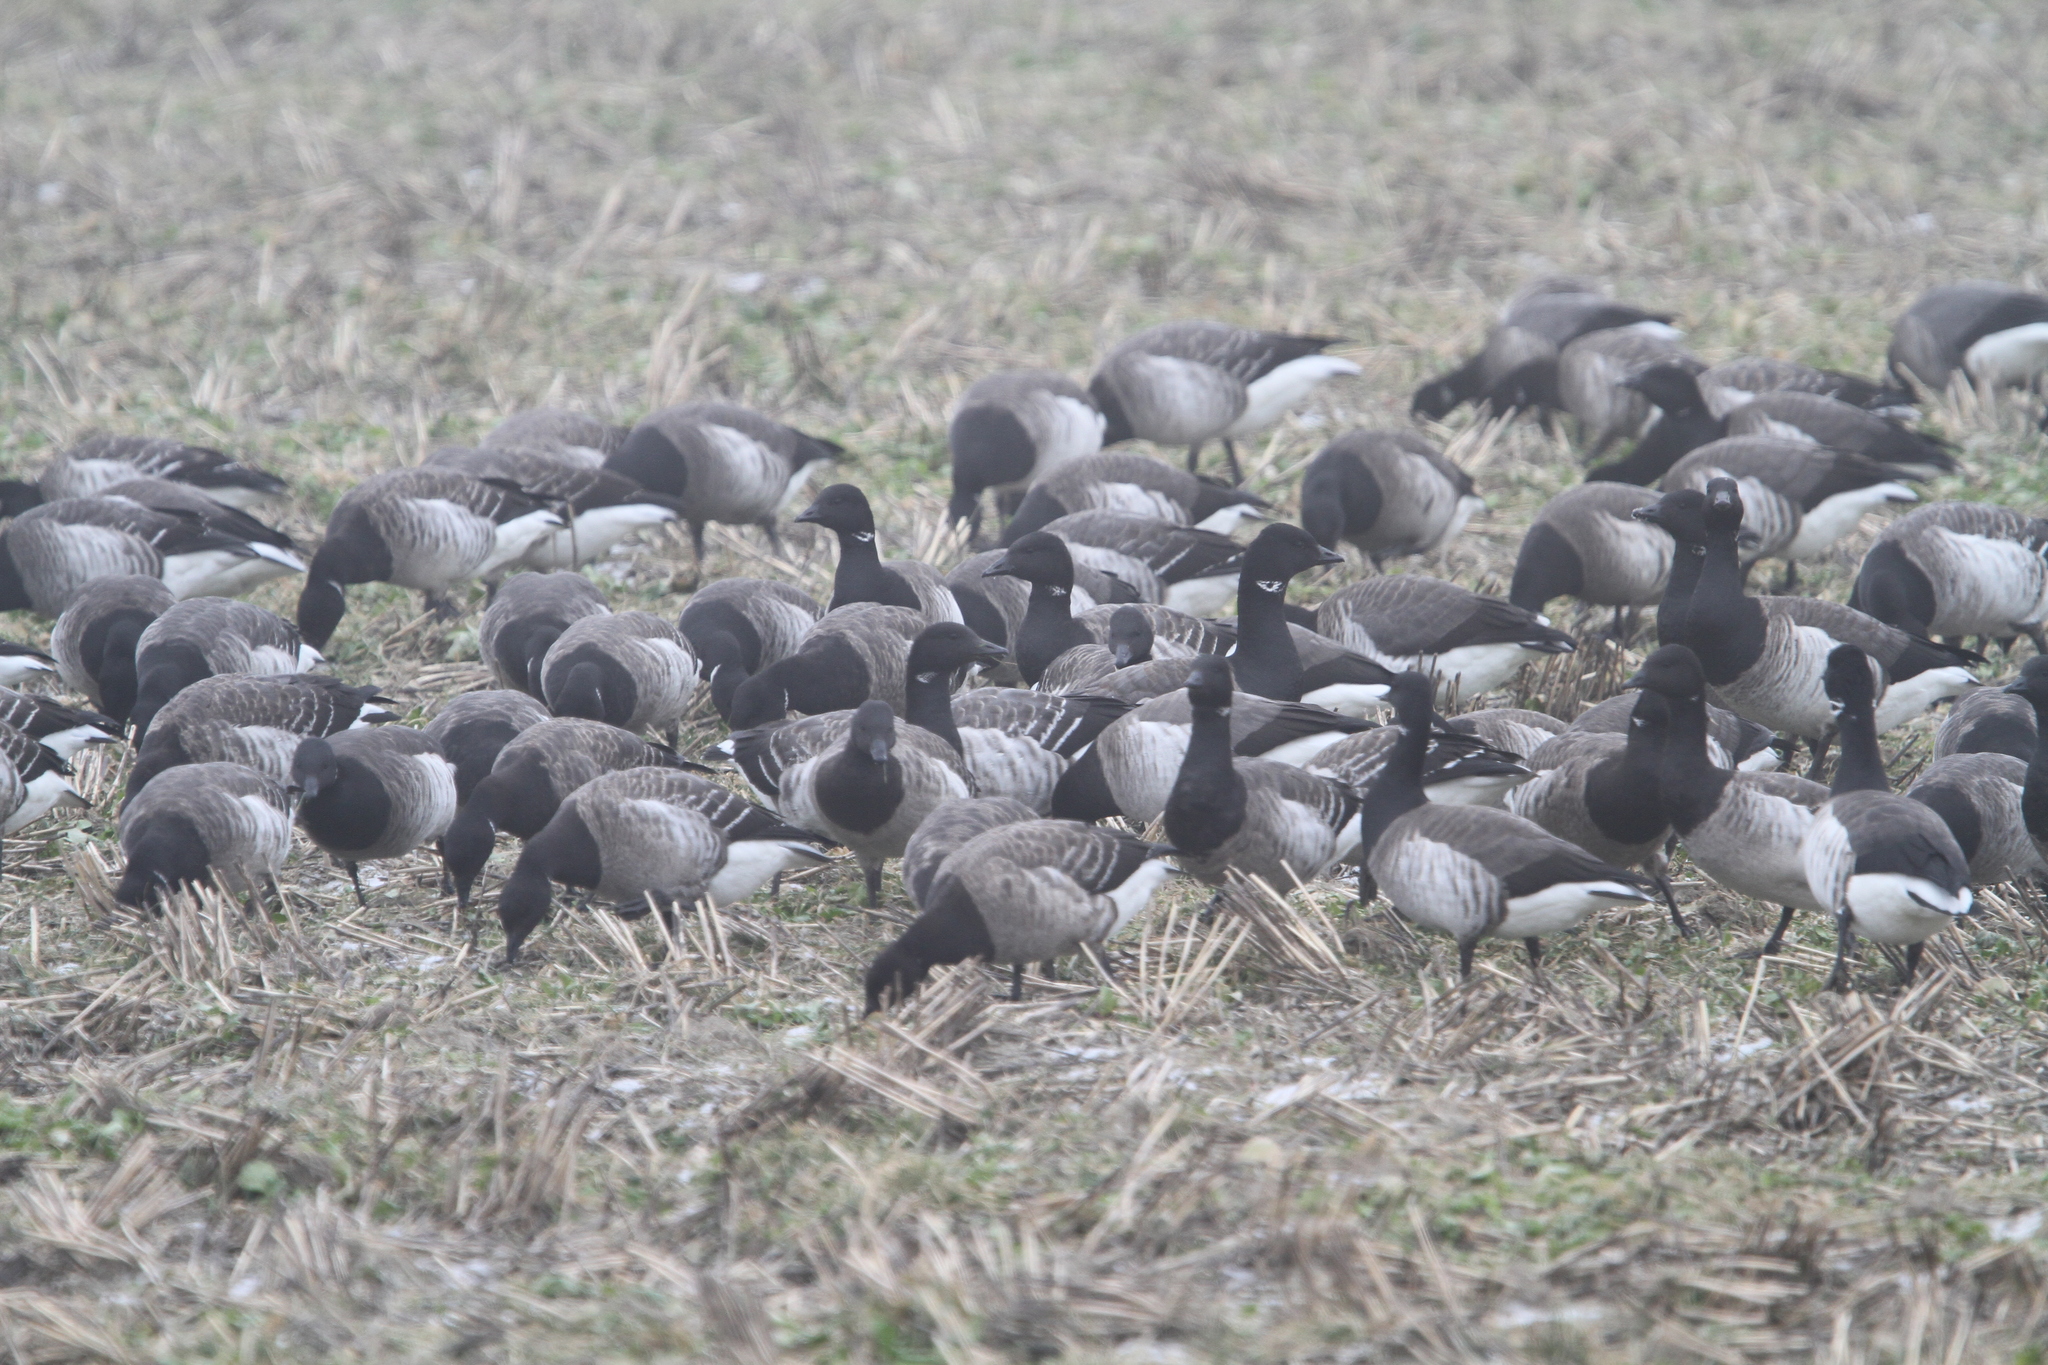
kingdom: Animalia
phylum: Chordata
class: Aves
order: Anseriformes
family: Anatidae
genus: Branta
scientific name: Branta bernicla
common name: Brant goose
